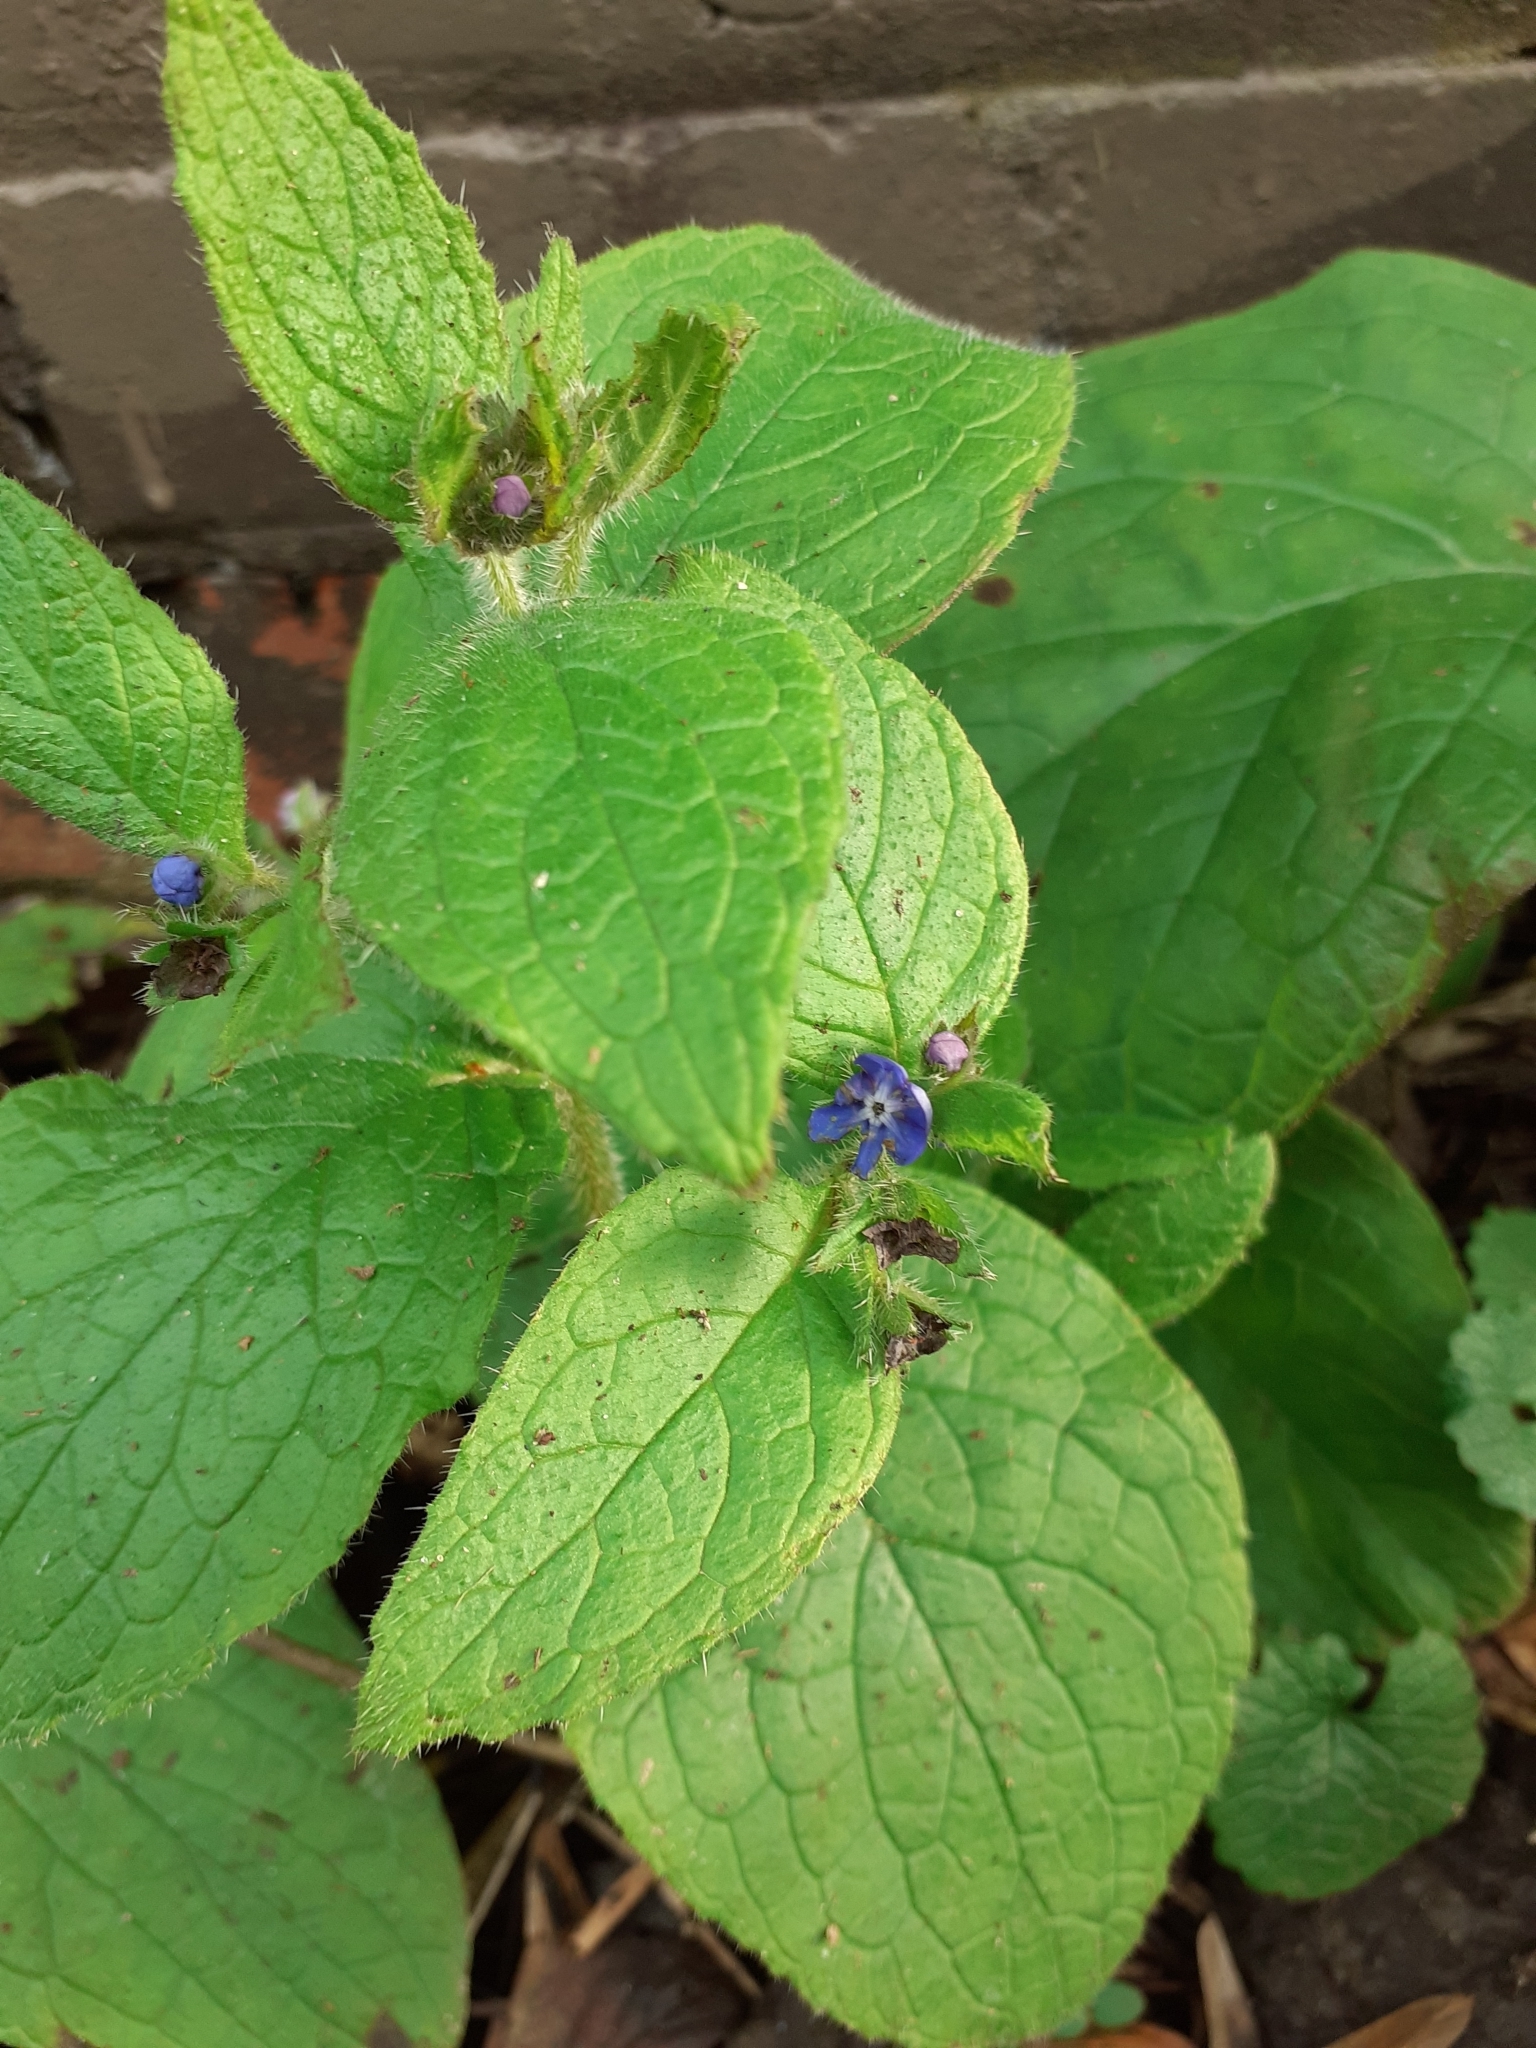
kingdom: Plantae
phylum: Tracheophyta
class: Magnoliopsida
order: Boraginales
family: Boraginaceae
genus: Pentaglottis
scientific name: Pentaglottis sempervirens
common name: Green alkanet
